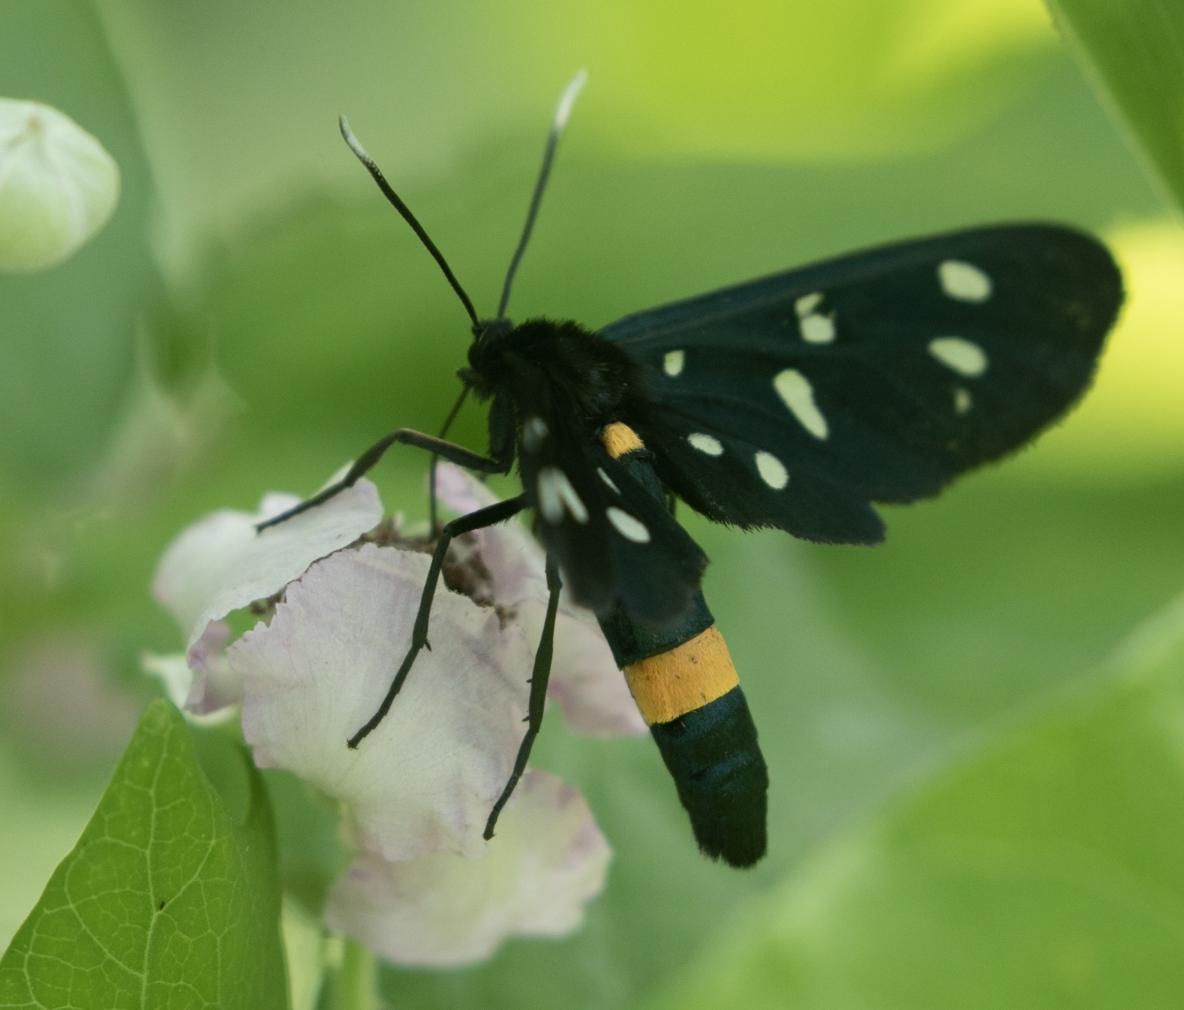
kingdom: Animalia
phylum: Arthropoda
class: Insecta
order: Lepidoptera
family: Erebidae
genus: Amata
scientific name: Amata phegea
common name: Nine-spotted
